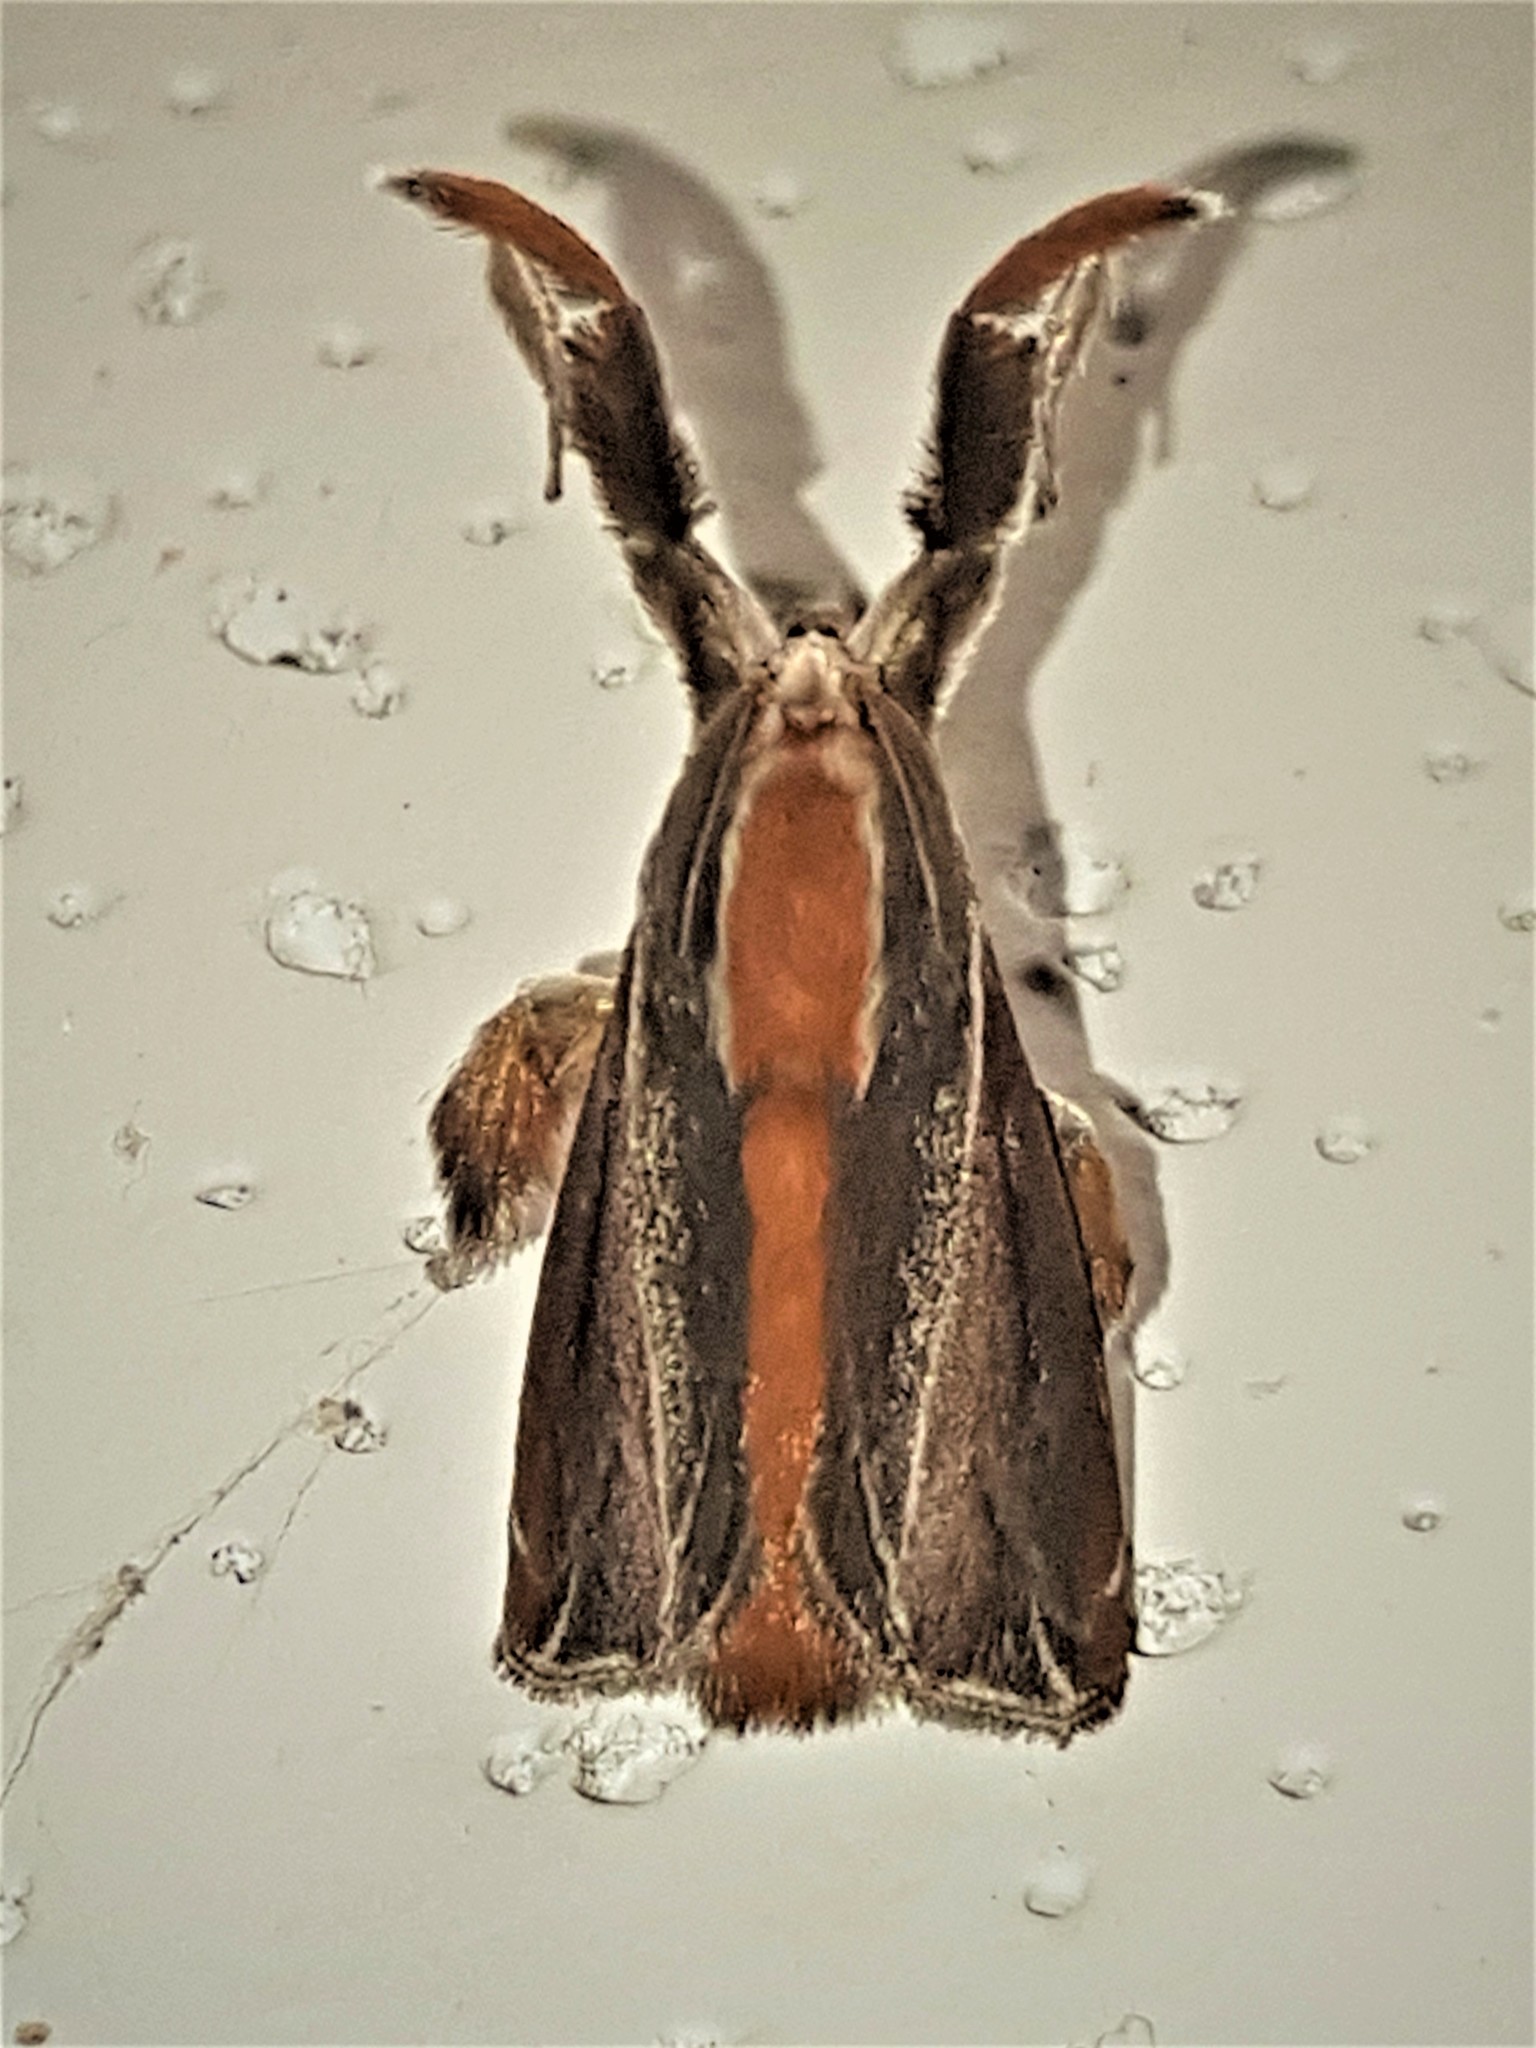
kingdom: Animalia
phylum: Arthropoda
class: Insecta
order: Lepidoptera
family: Limacodidae
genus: Epiperola
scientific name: Epiperola grandiosa
